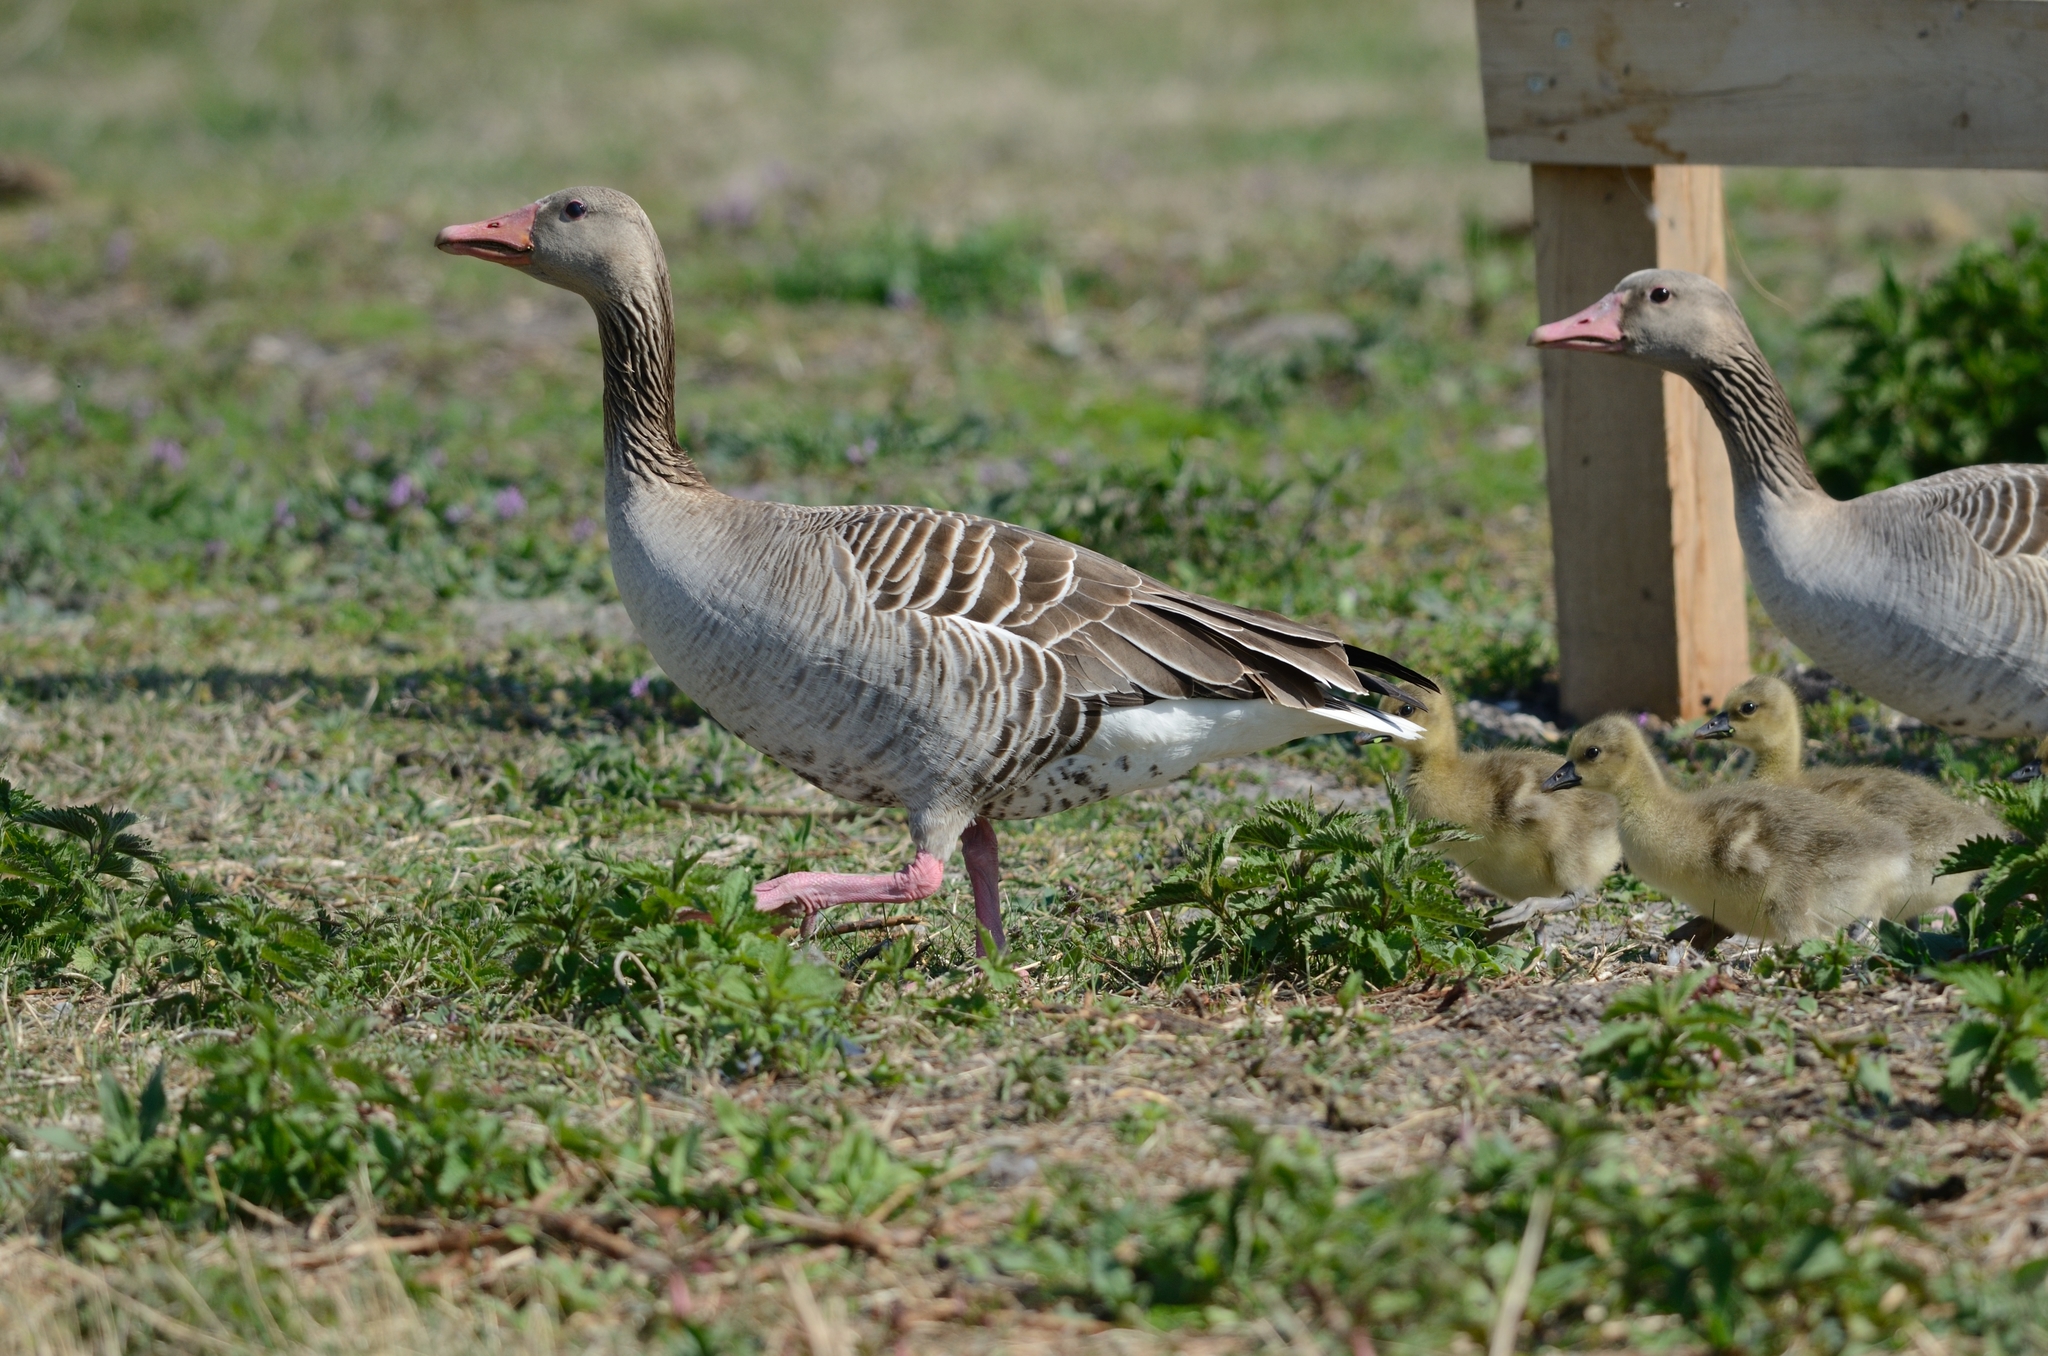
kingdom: Animalia
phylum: Chordata
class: Aves
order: Anseriformes
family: Anatidae
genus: Anser
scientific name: Anser anser
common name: Greylag goose
